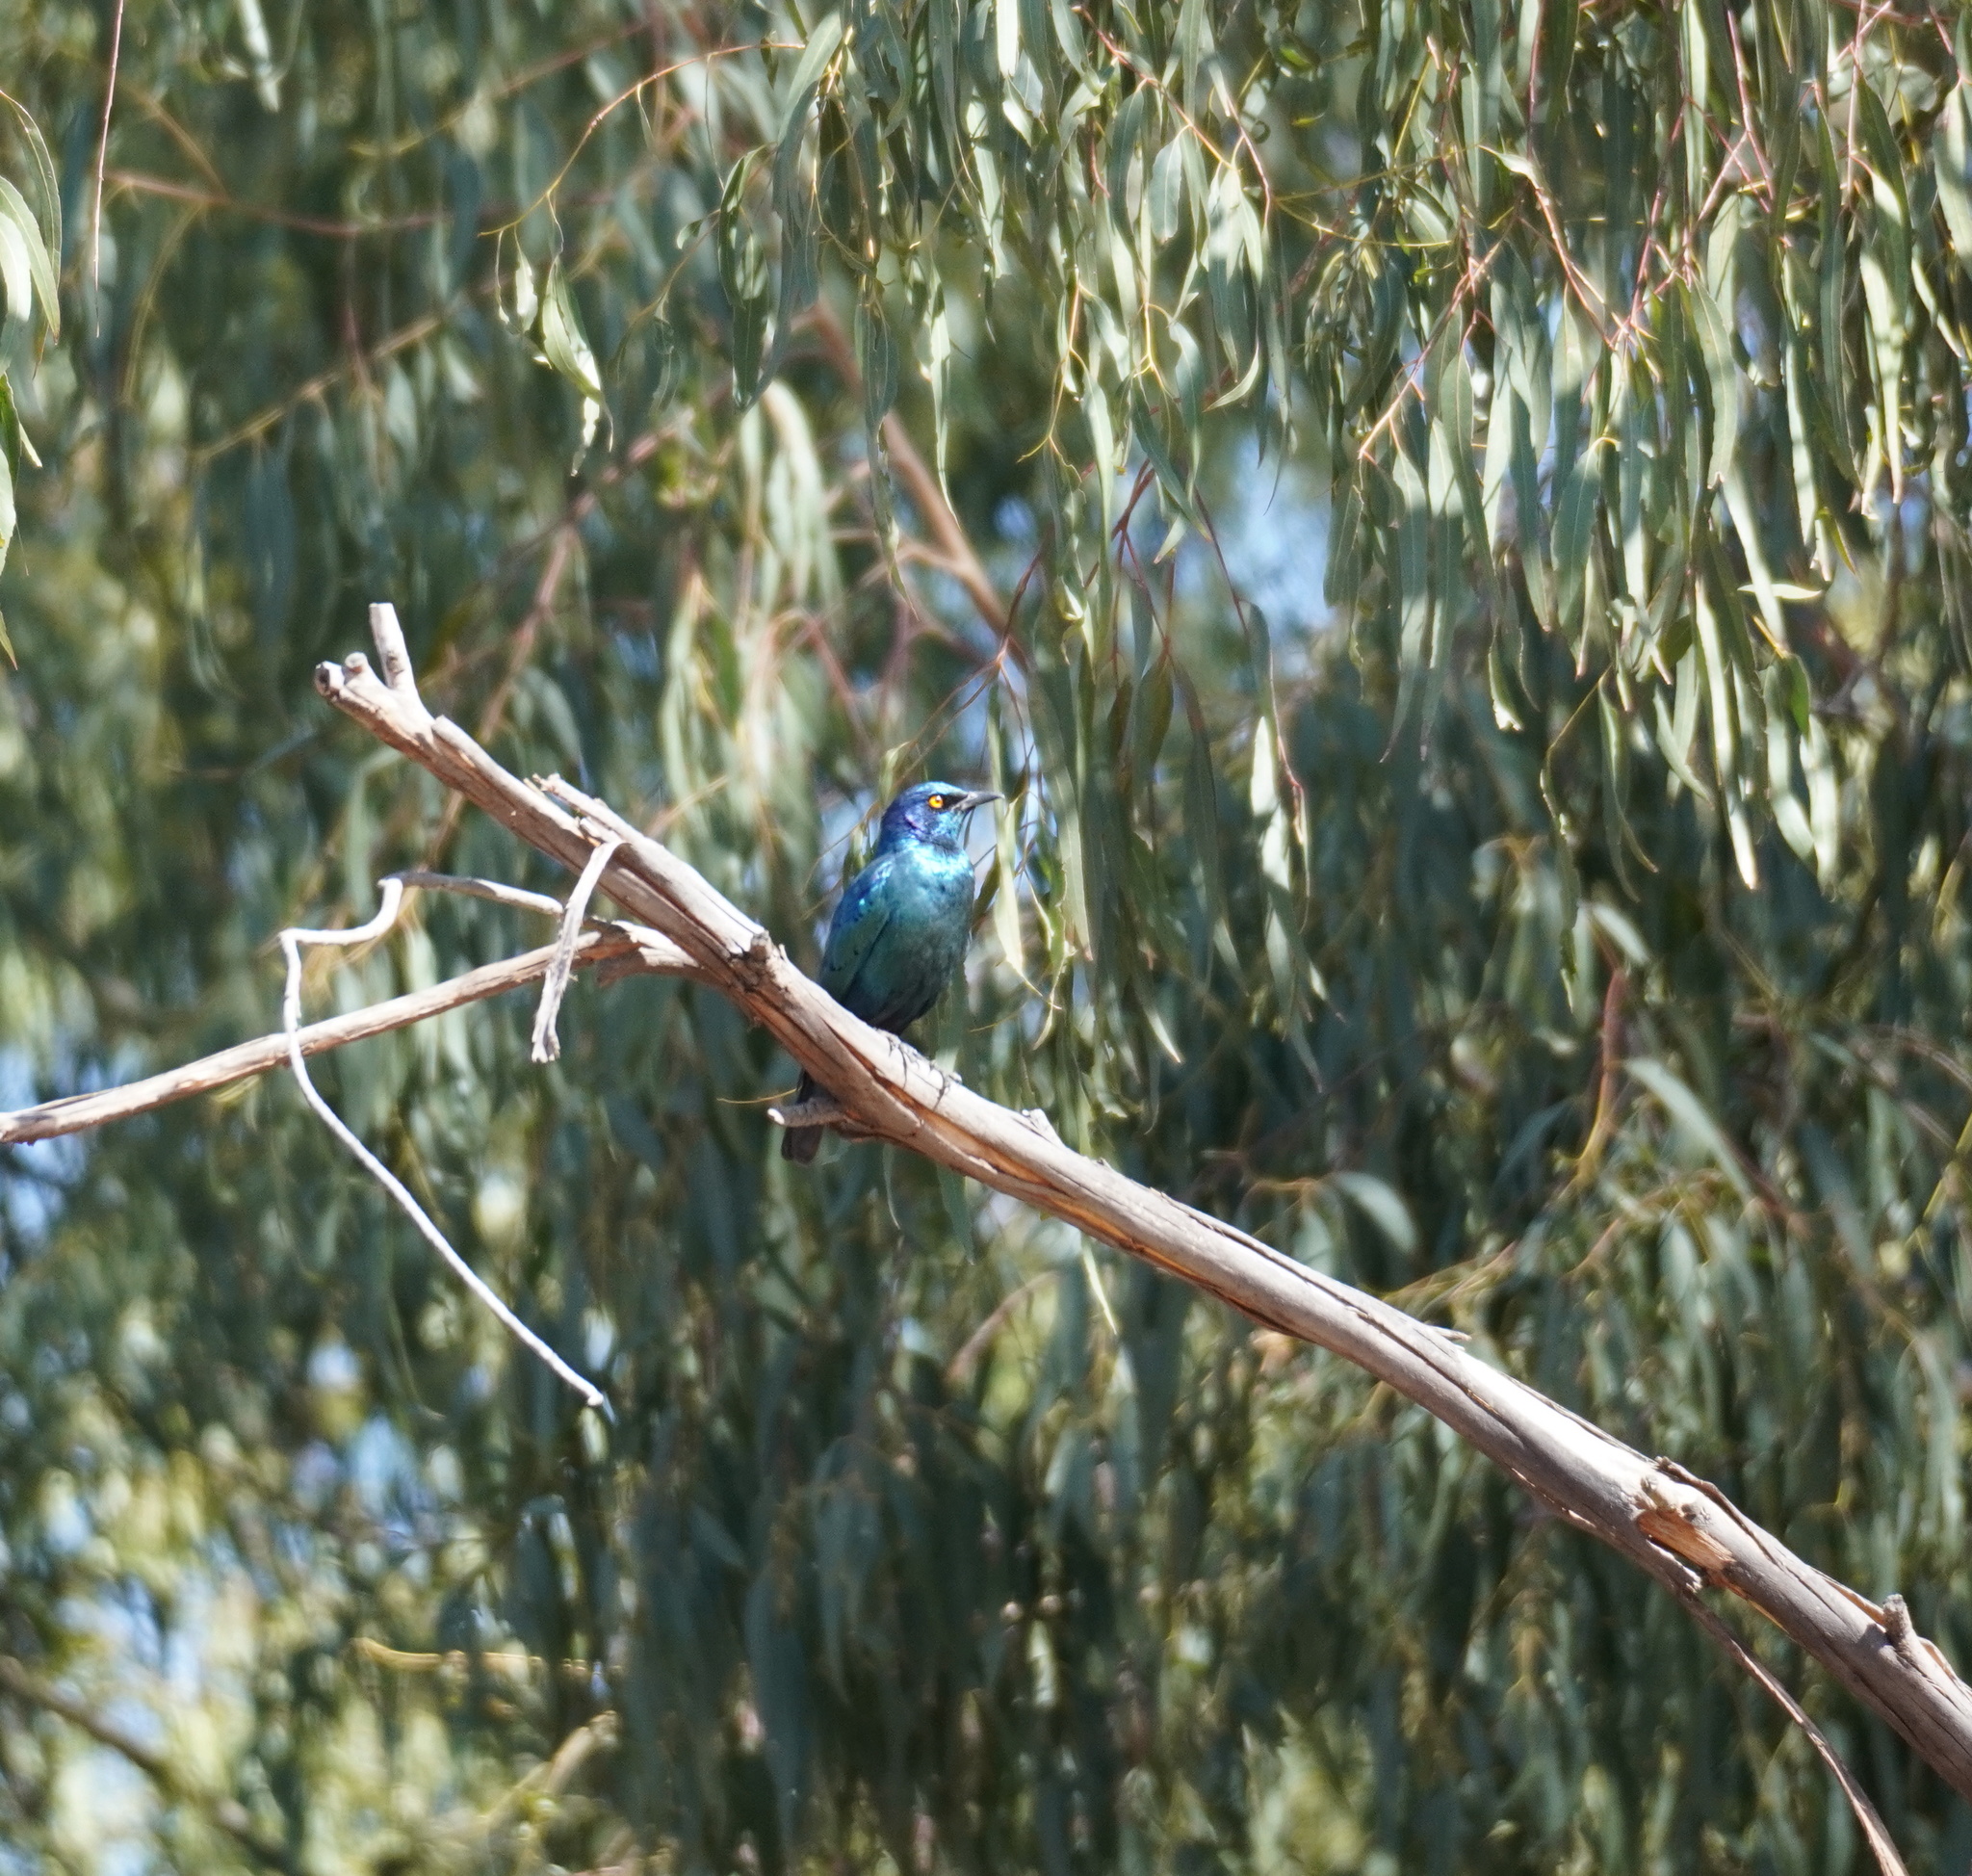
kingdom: Animalia
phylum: Chordata
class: Aves
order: Passeriformes
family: Sturnidae
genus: Lamprotornis
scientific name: Lamprotornis nitens
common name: Cape starling
